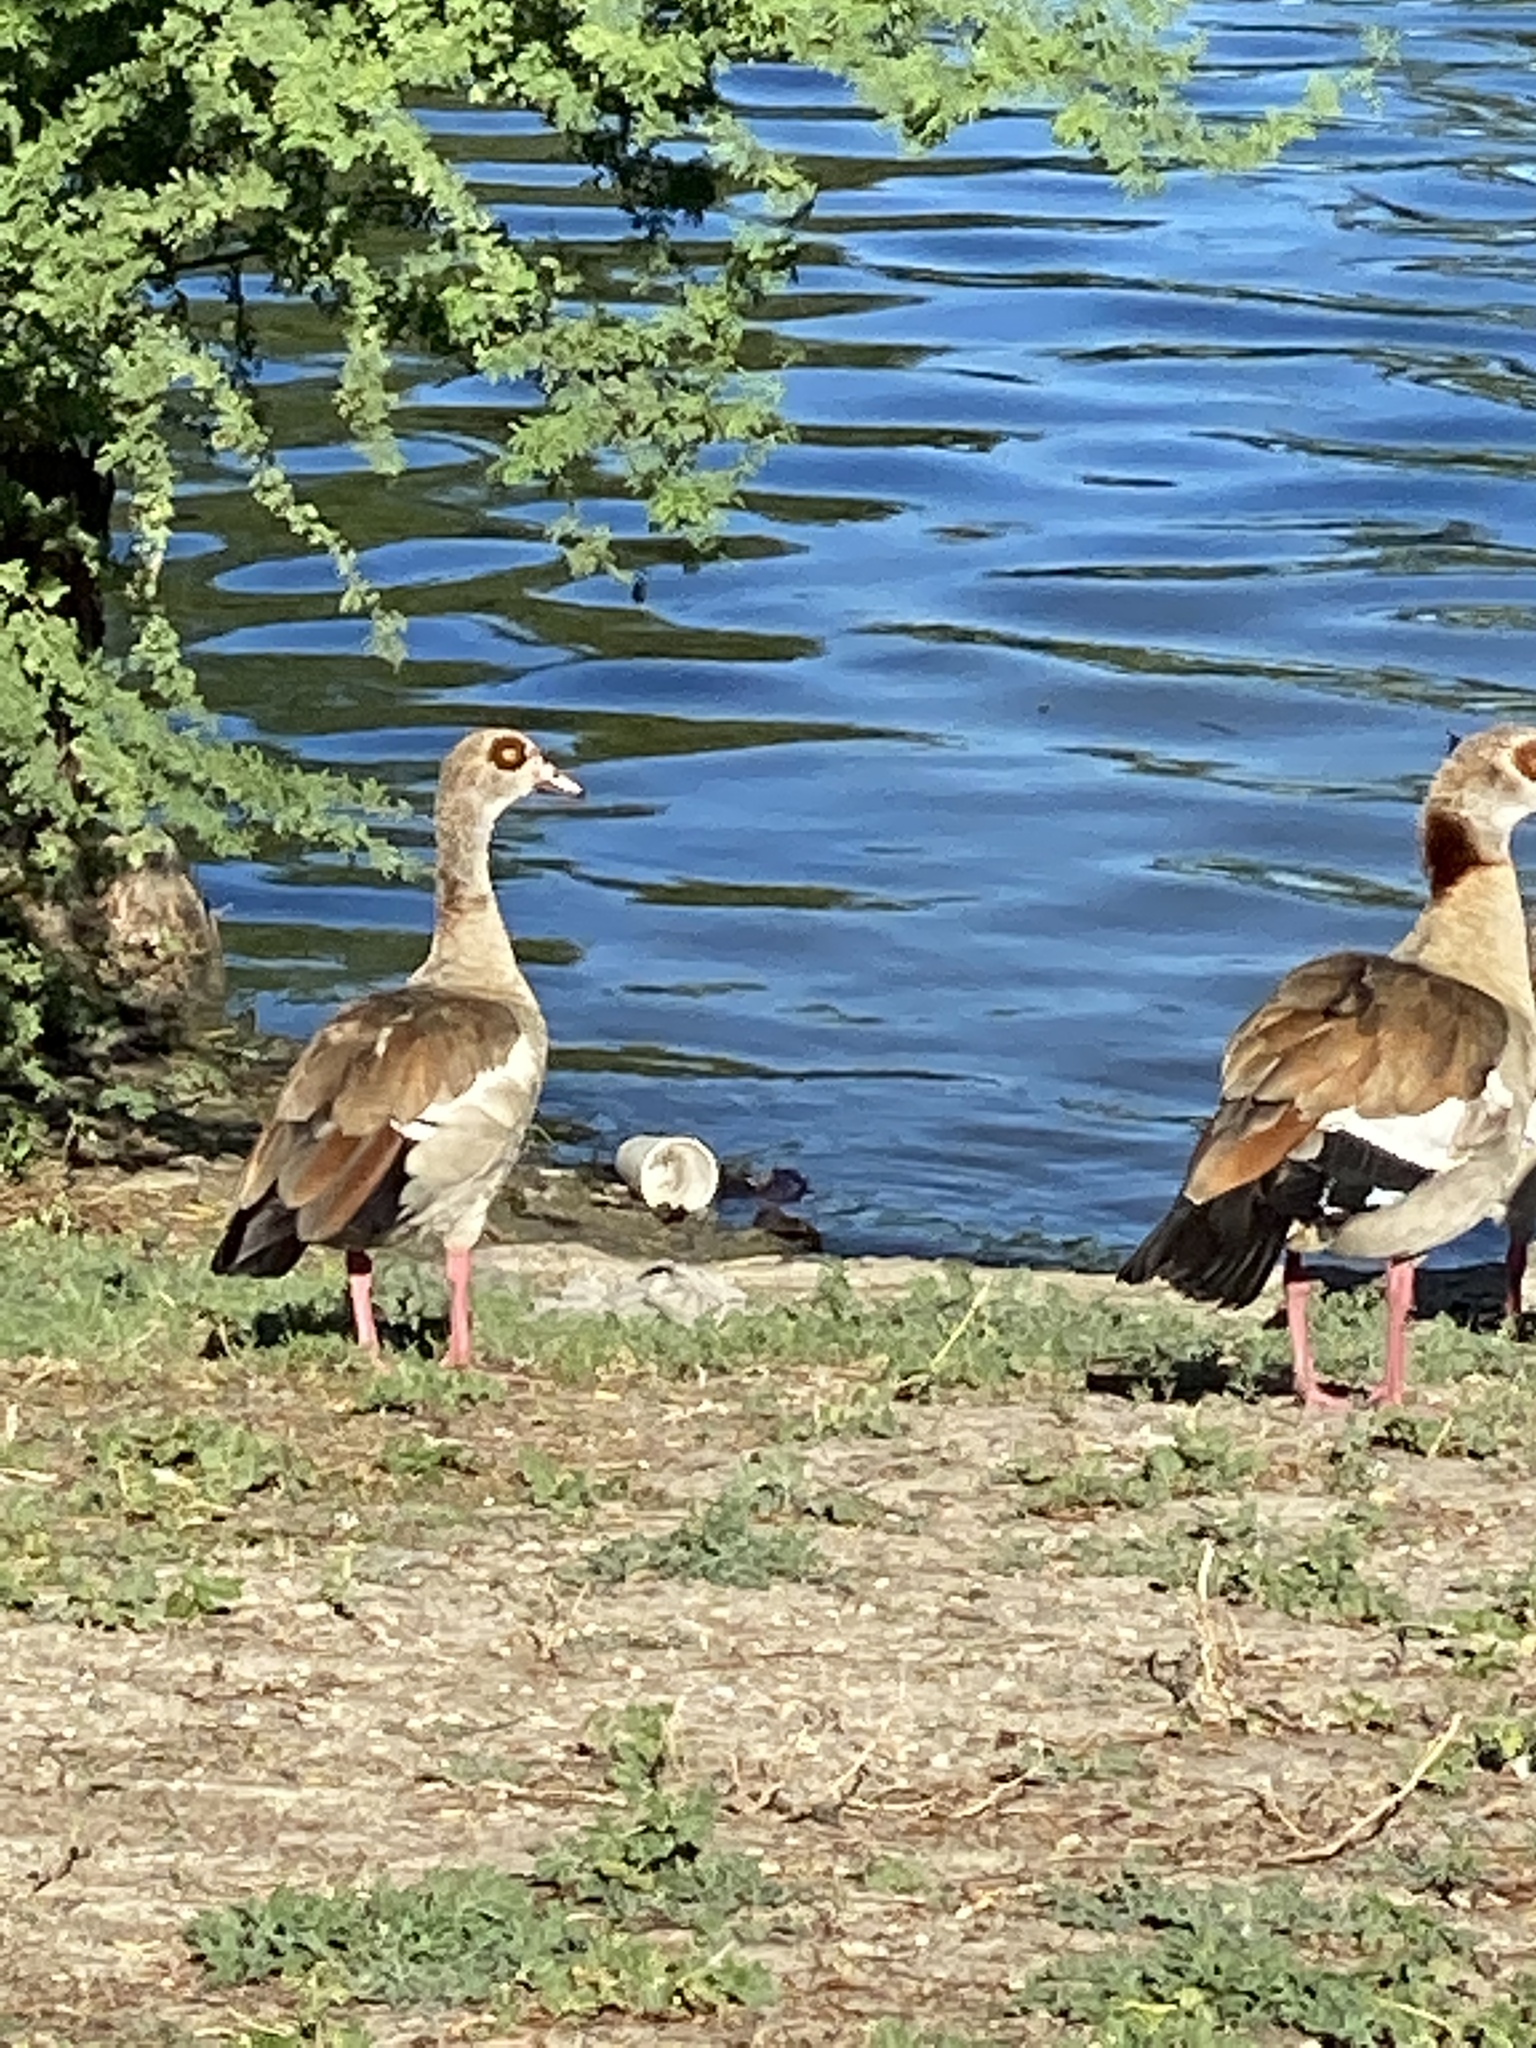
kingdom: Animalia
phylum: Chordata
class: Aves
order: Anseriformes
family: Anatidae
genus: Alopochen
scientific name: Alopochen aegyptiaca
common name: Egyptian goose
